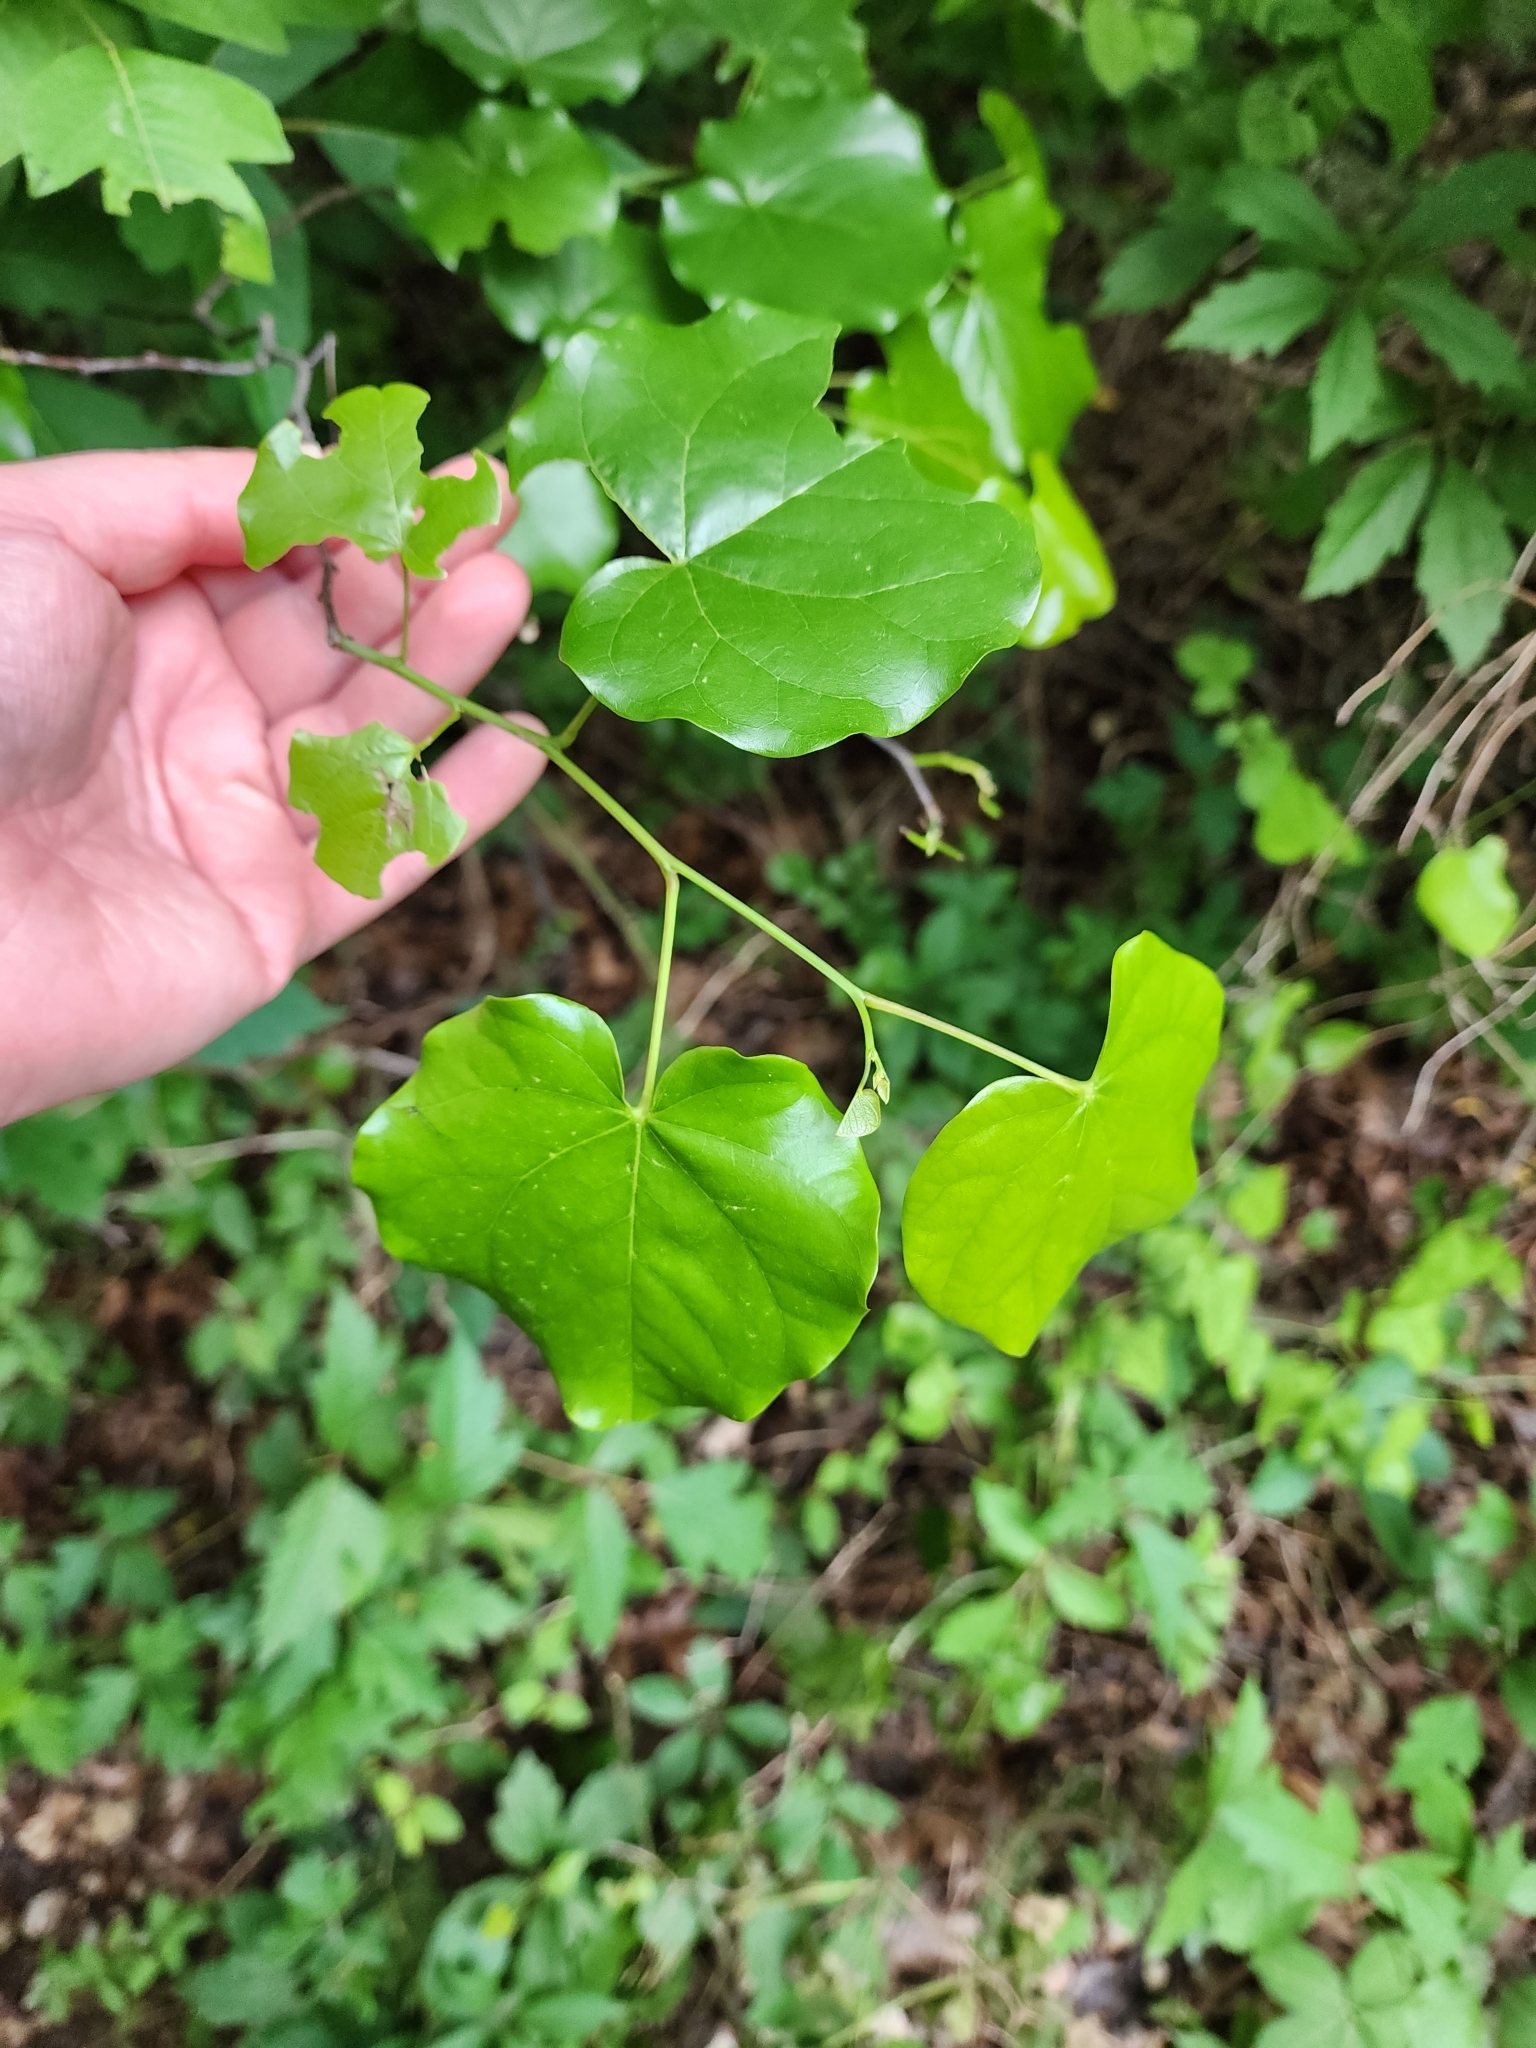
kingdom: Plantae
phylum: Tracheophyta
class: Magnoliopsida
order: Fabales
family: Fabaceae
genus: Cercis
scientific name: Cercis canadensis
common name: Eastern redbud
